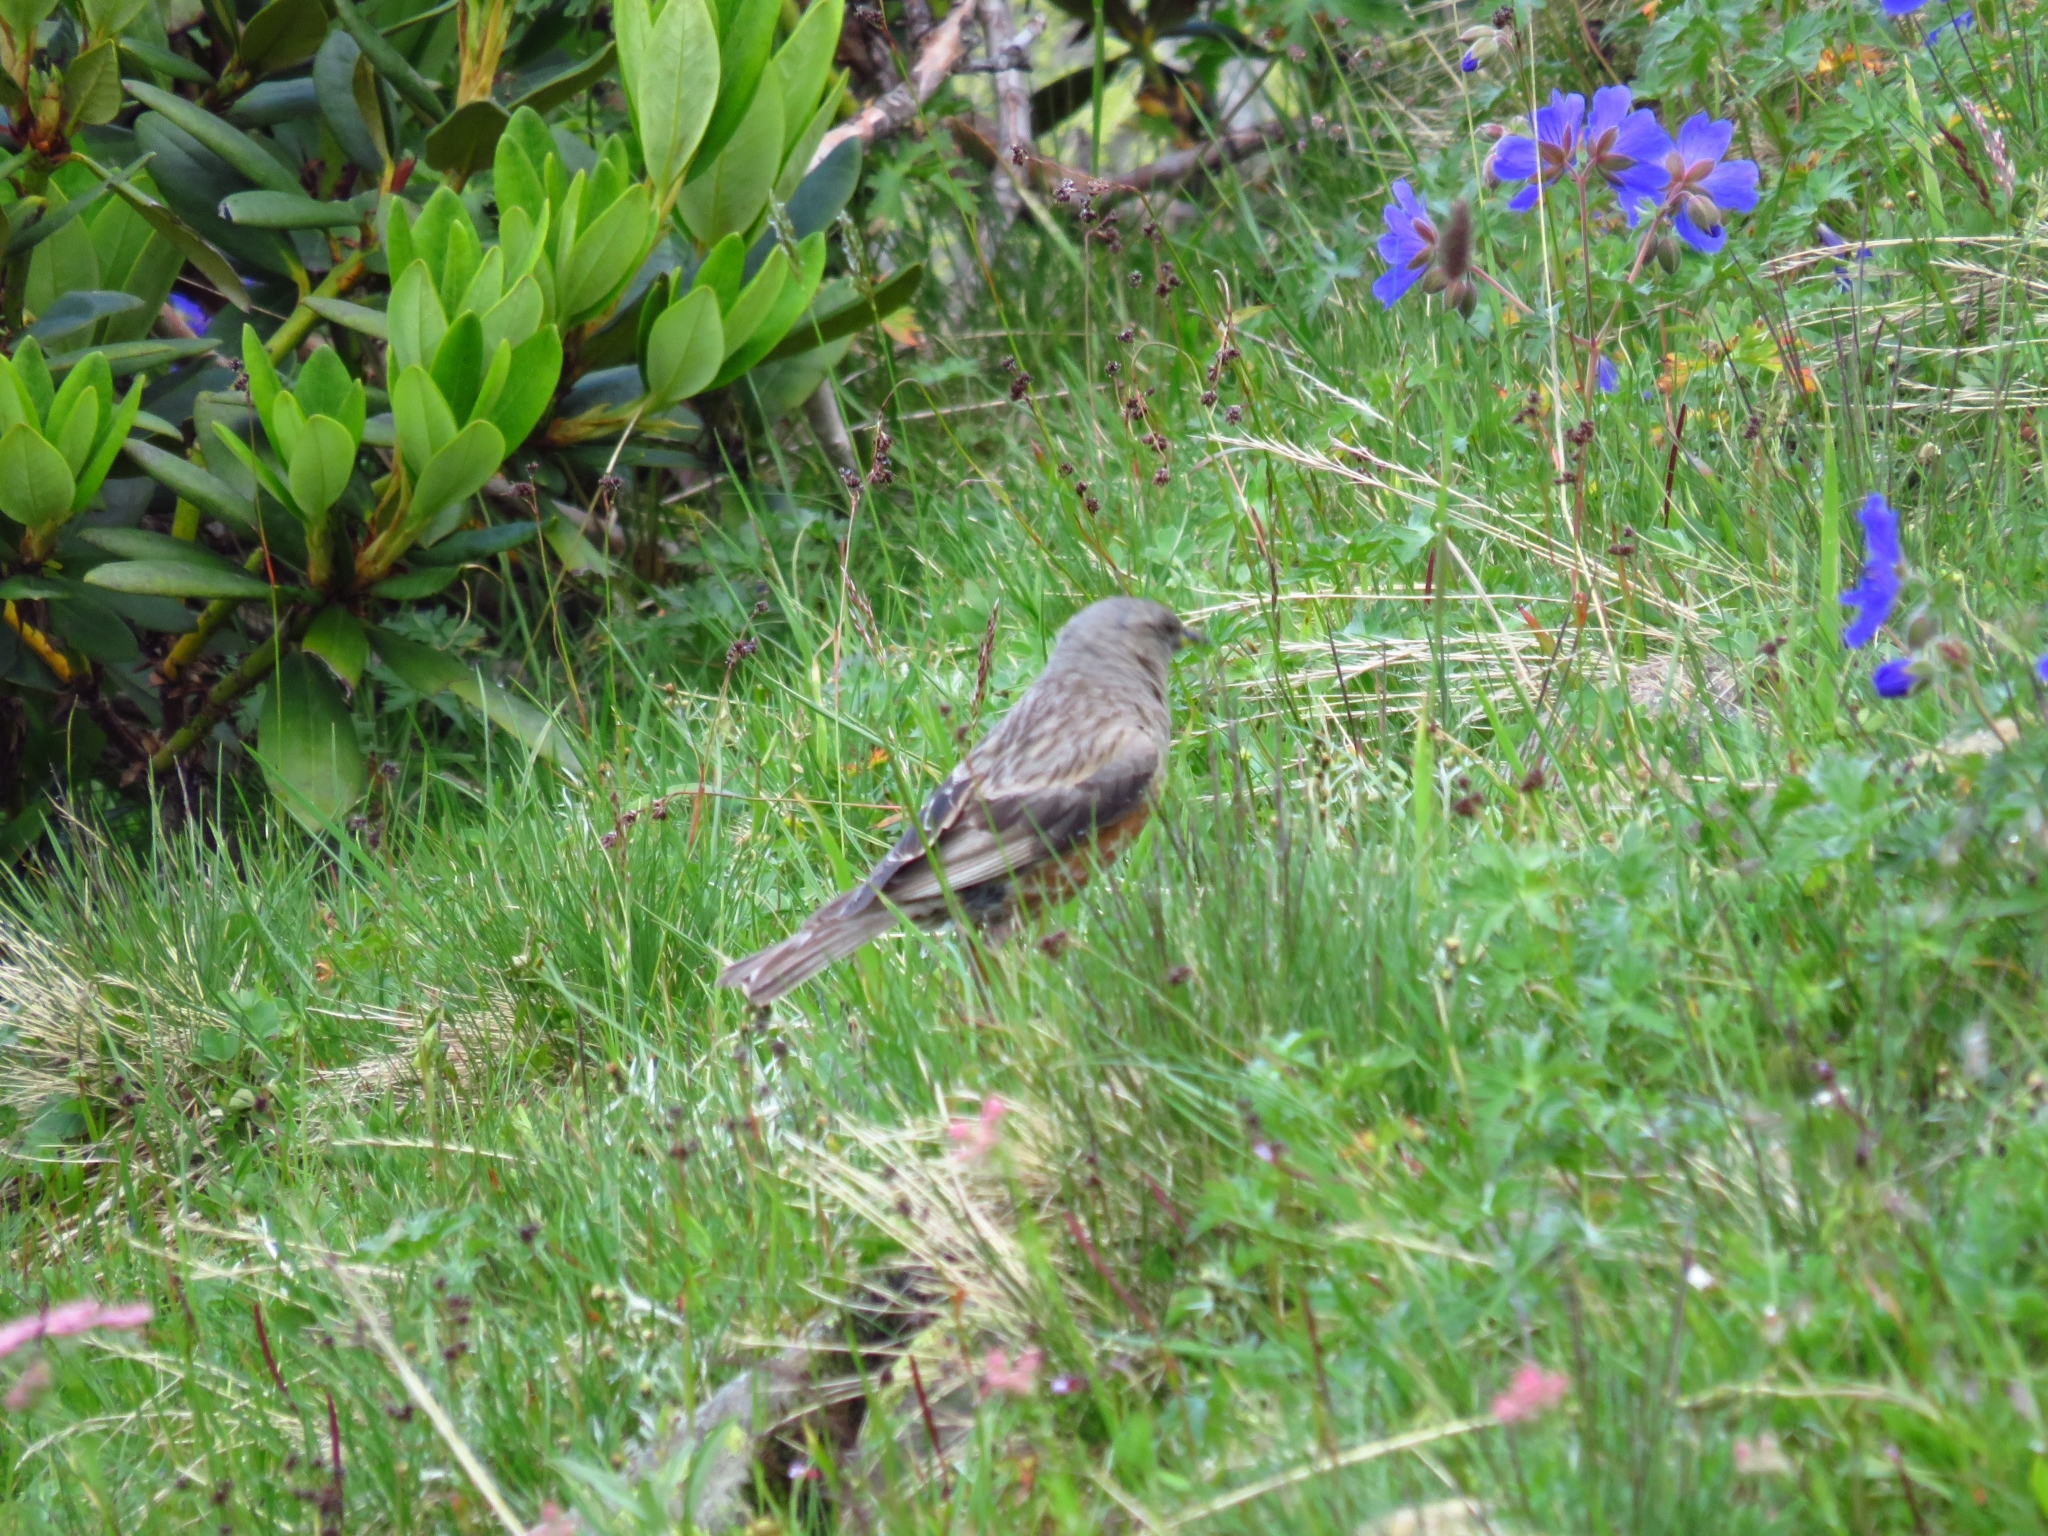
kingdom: Animalia
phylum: Chordata
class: Aves
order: Passeriformes
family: Prunellidae
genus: Prunella
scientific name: Prunella collaris
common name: Alpine accentor
